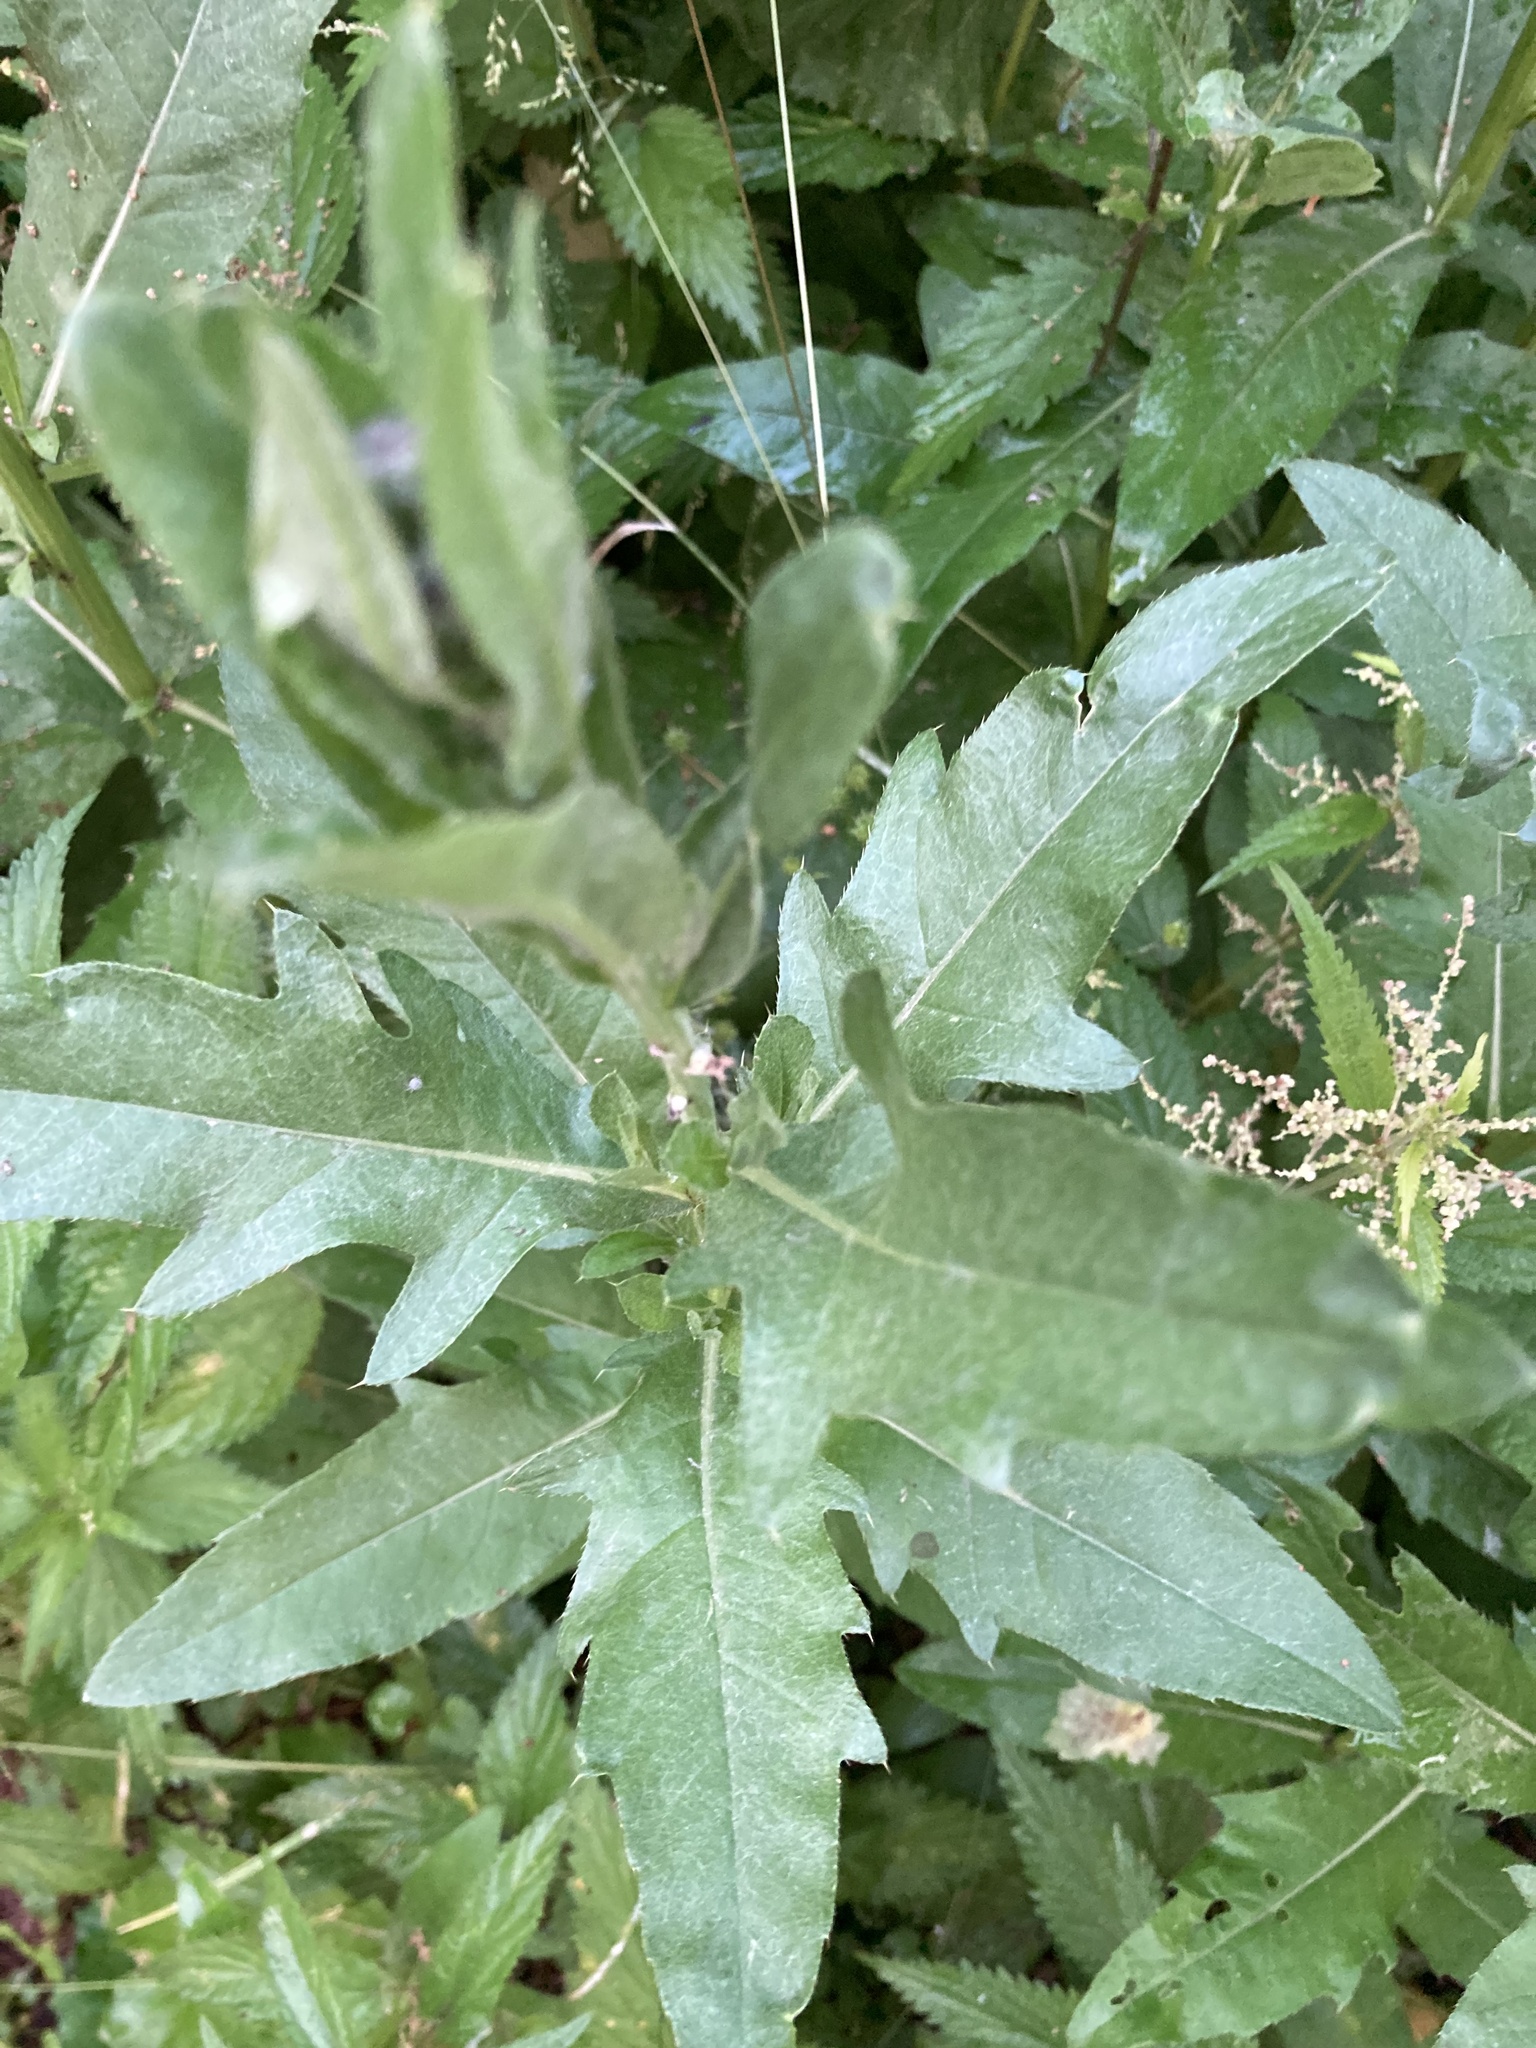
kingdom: Plantae
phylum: Tracheophyta
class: Magnoliopsida
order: Asterales
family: Asteraceae
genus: Cirsium
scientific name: Cirsium arvense
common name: Creeping thistle
